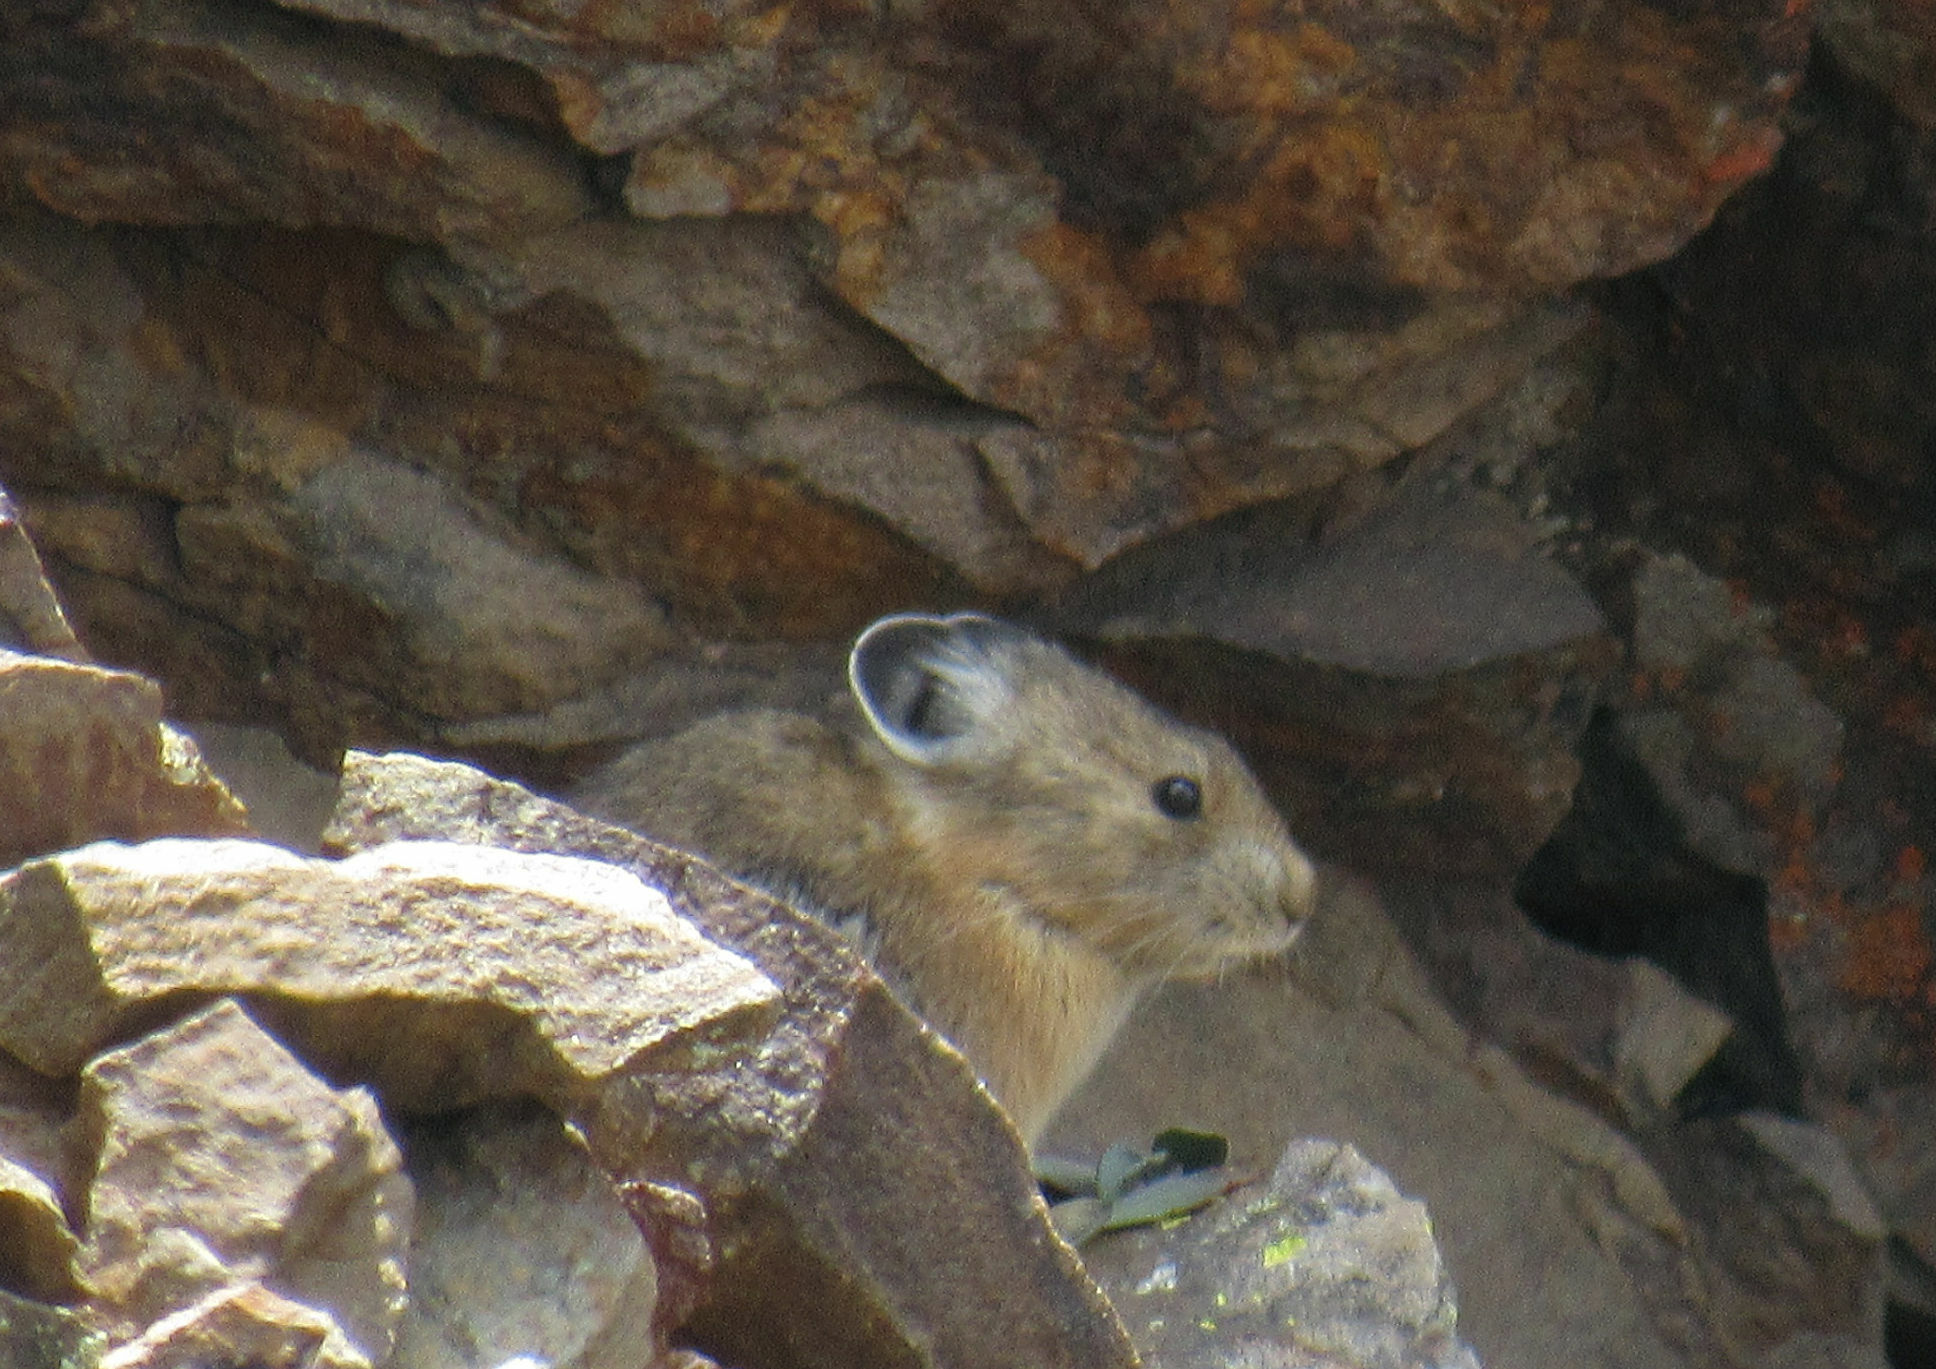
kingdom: Animalia
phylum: Chordata
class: Mammalia
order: Lagomorpha
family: Ochotonidae
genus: Ochotona
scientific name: Ochotona princeps
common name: American pika
